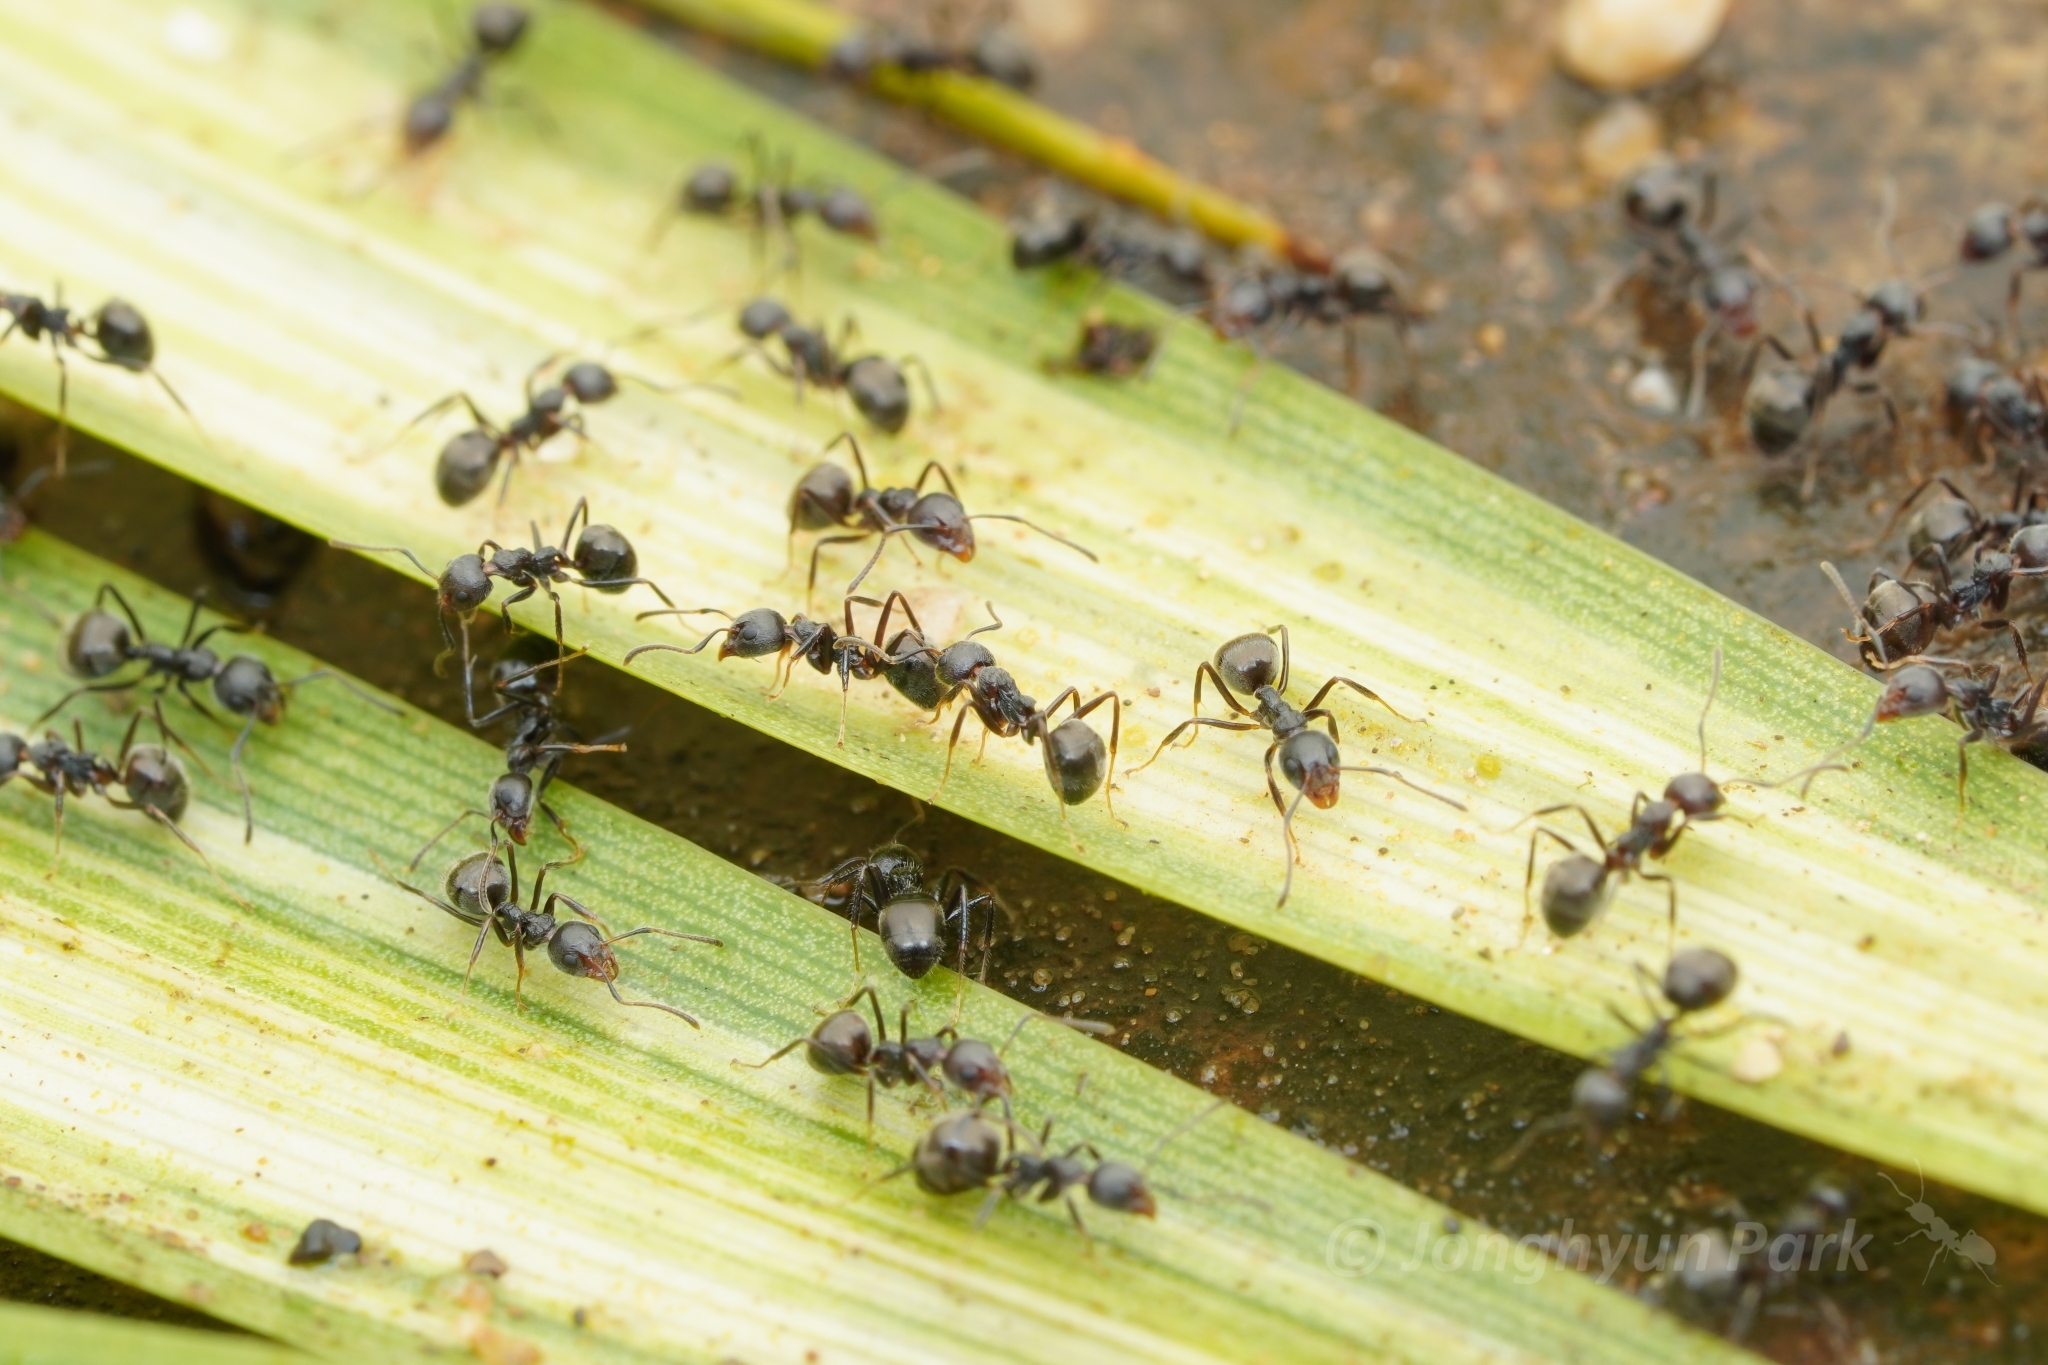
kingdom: Animalia
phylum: Arthropoda
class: Insecta
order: Hymenoptera
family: Formicidae
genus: Dolichoderus
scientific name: Dolichoderus thoracicus
